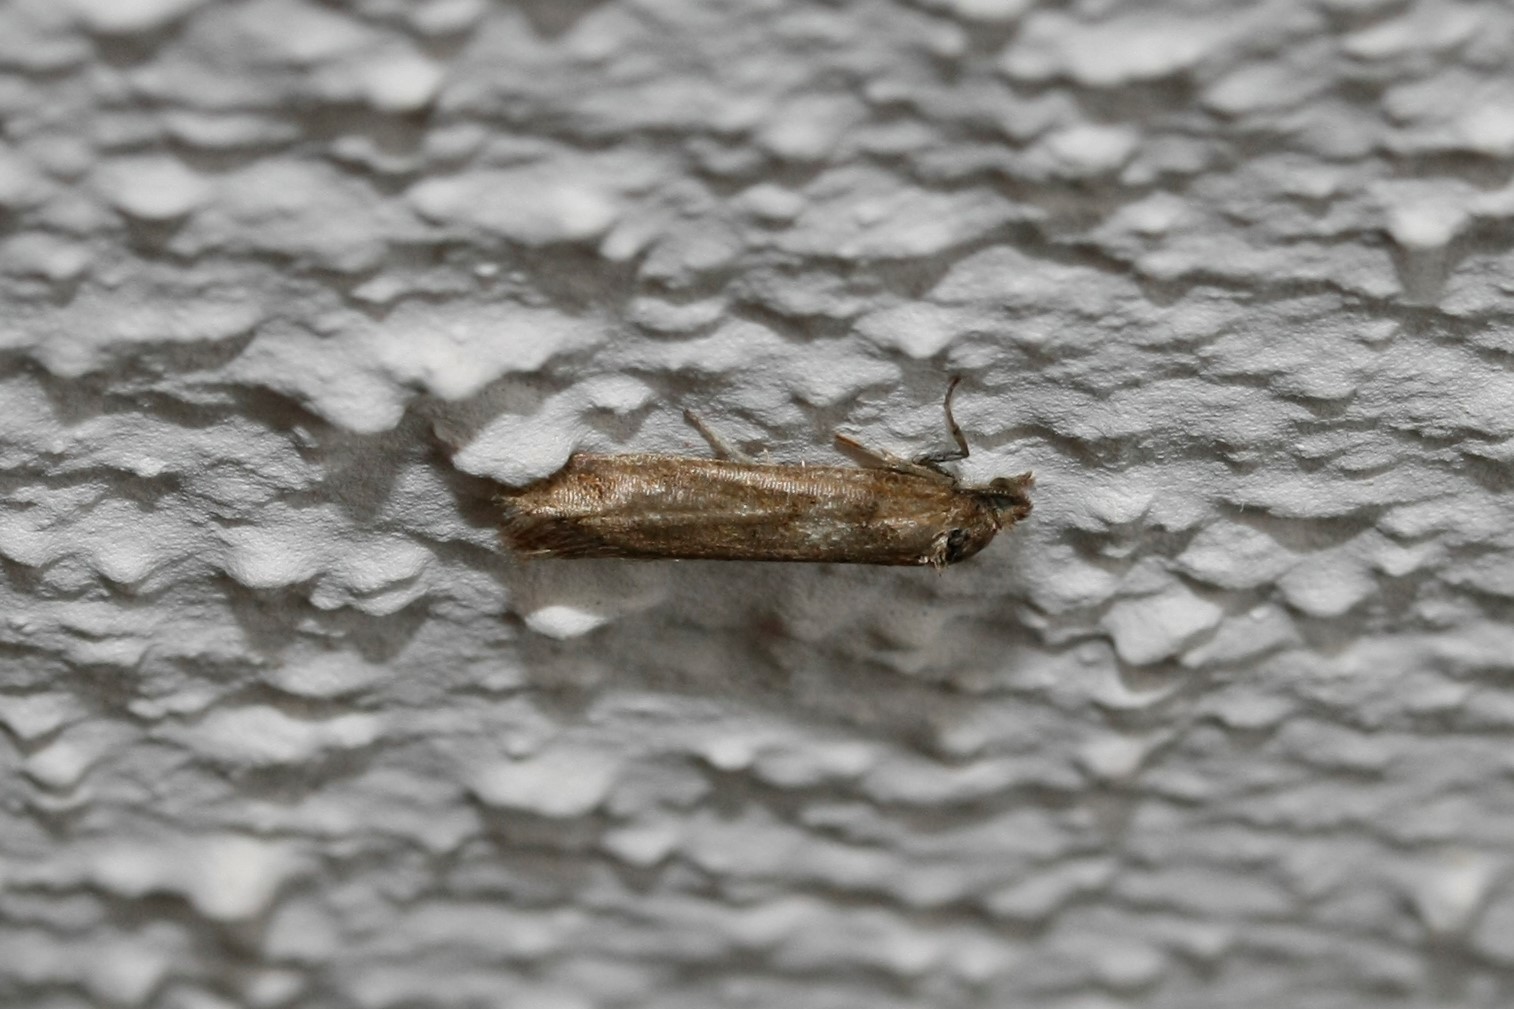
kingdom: Animalia
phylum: Arthropoda
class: Insecta
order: Lepidoptera
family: Tortricidae
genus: Tortricodes
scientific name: Tortricodes alternella
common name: Winter shade
